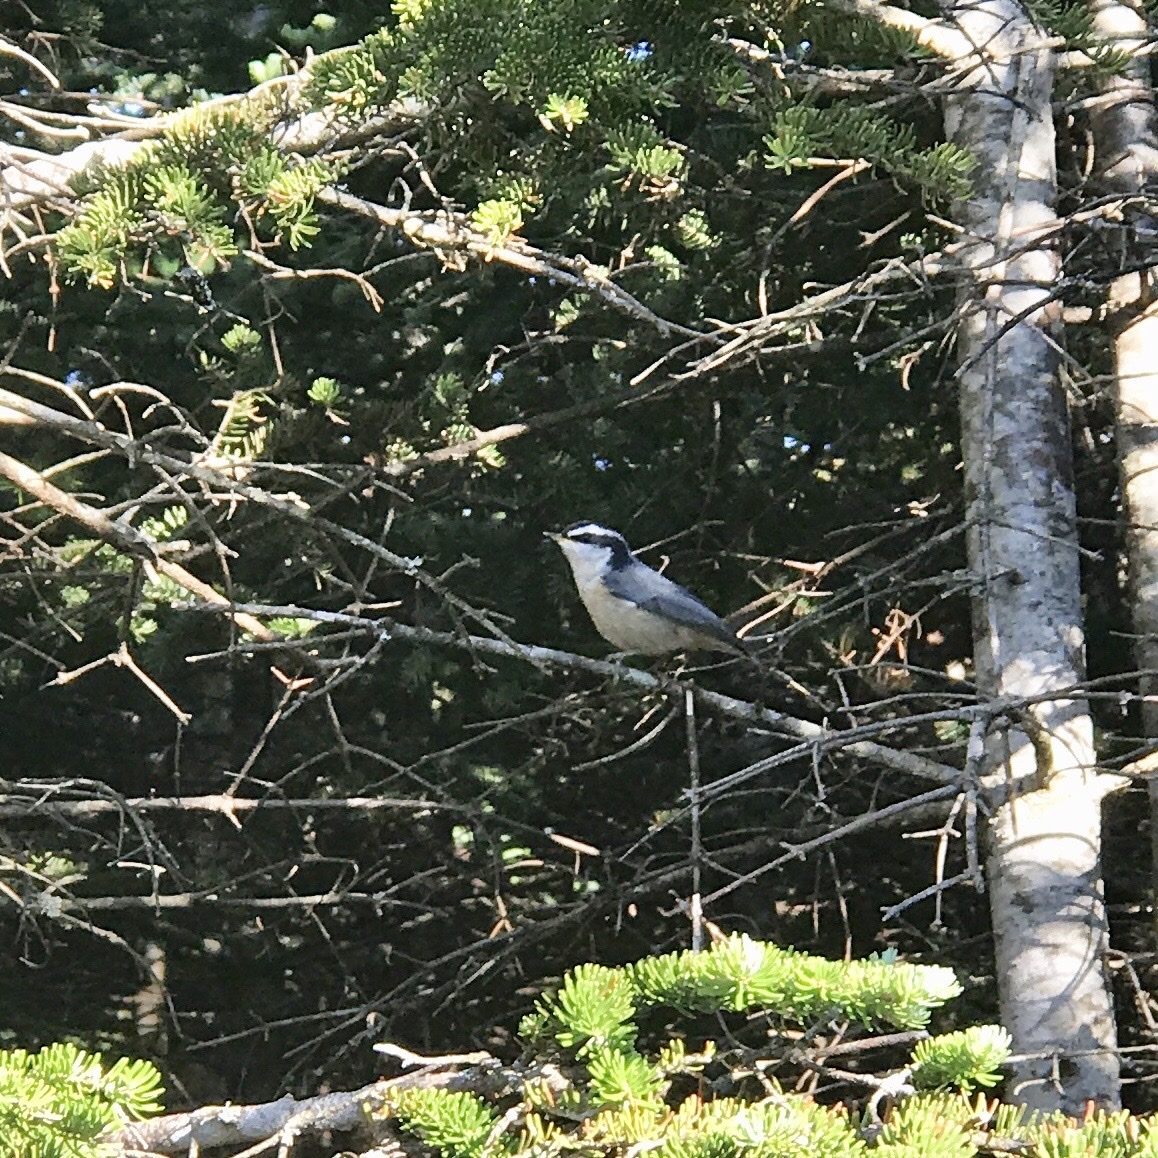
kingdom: Animalia
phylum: Chordata
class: Aves
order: Passeriformes
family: Sittidae
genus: Sitta
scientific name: Sitta canadensis
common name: Red-breasted nuthatch
